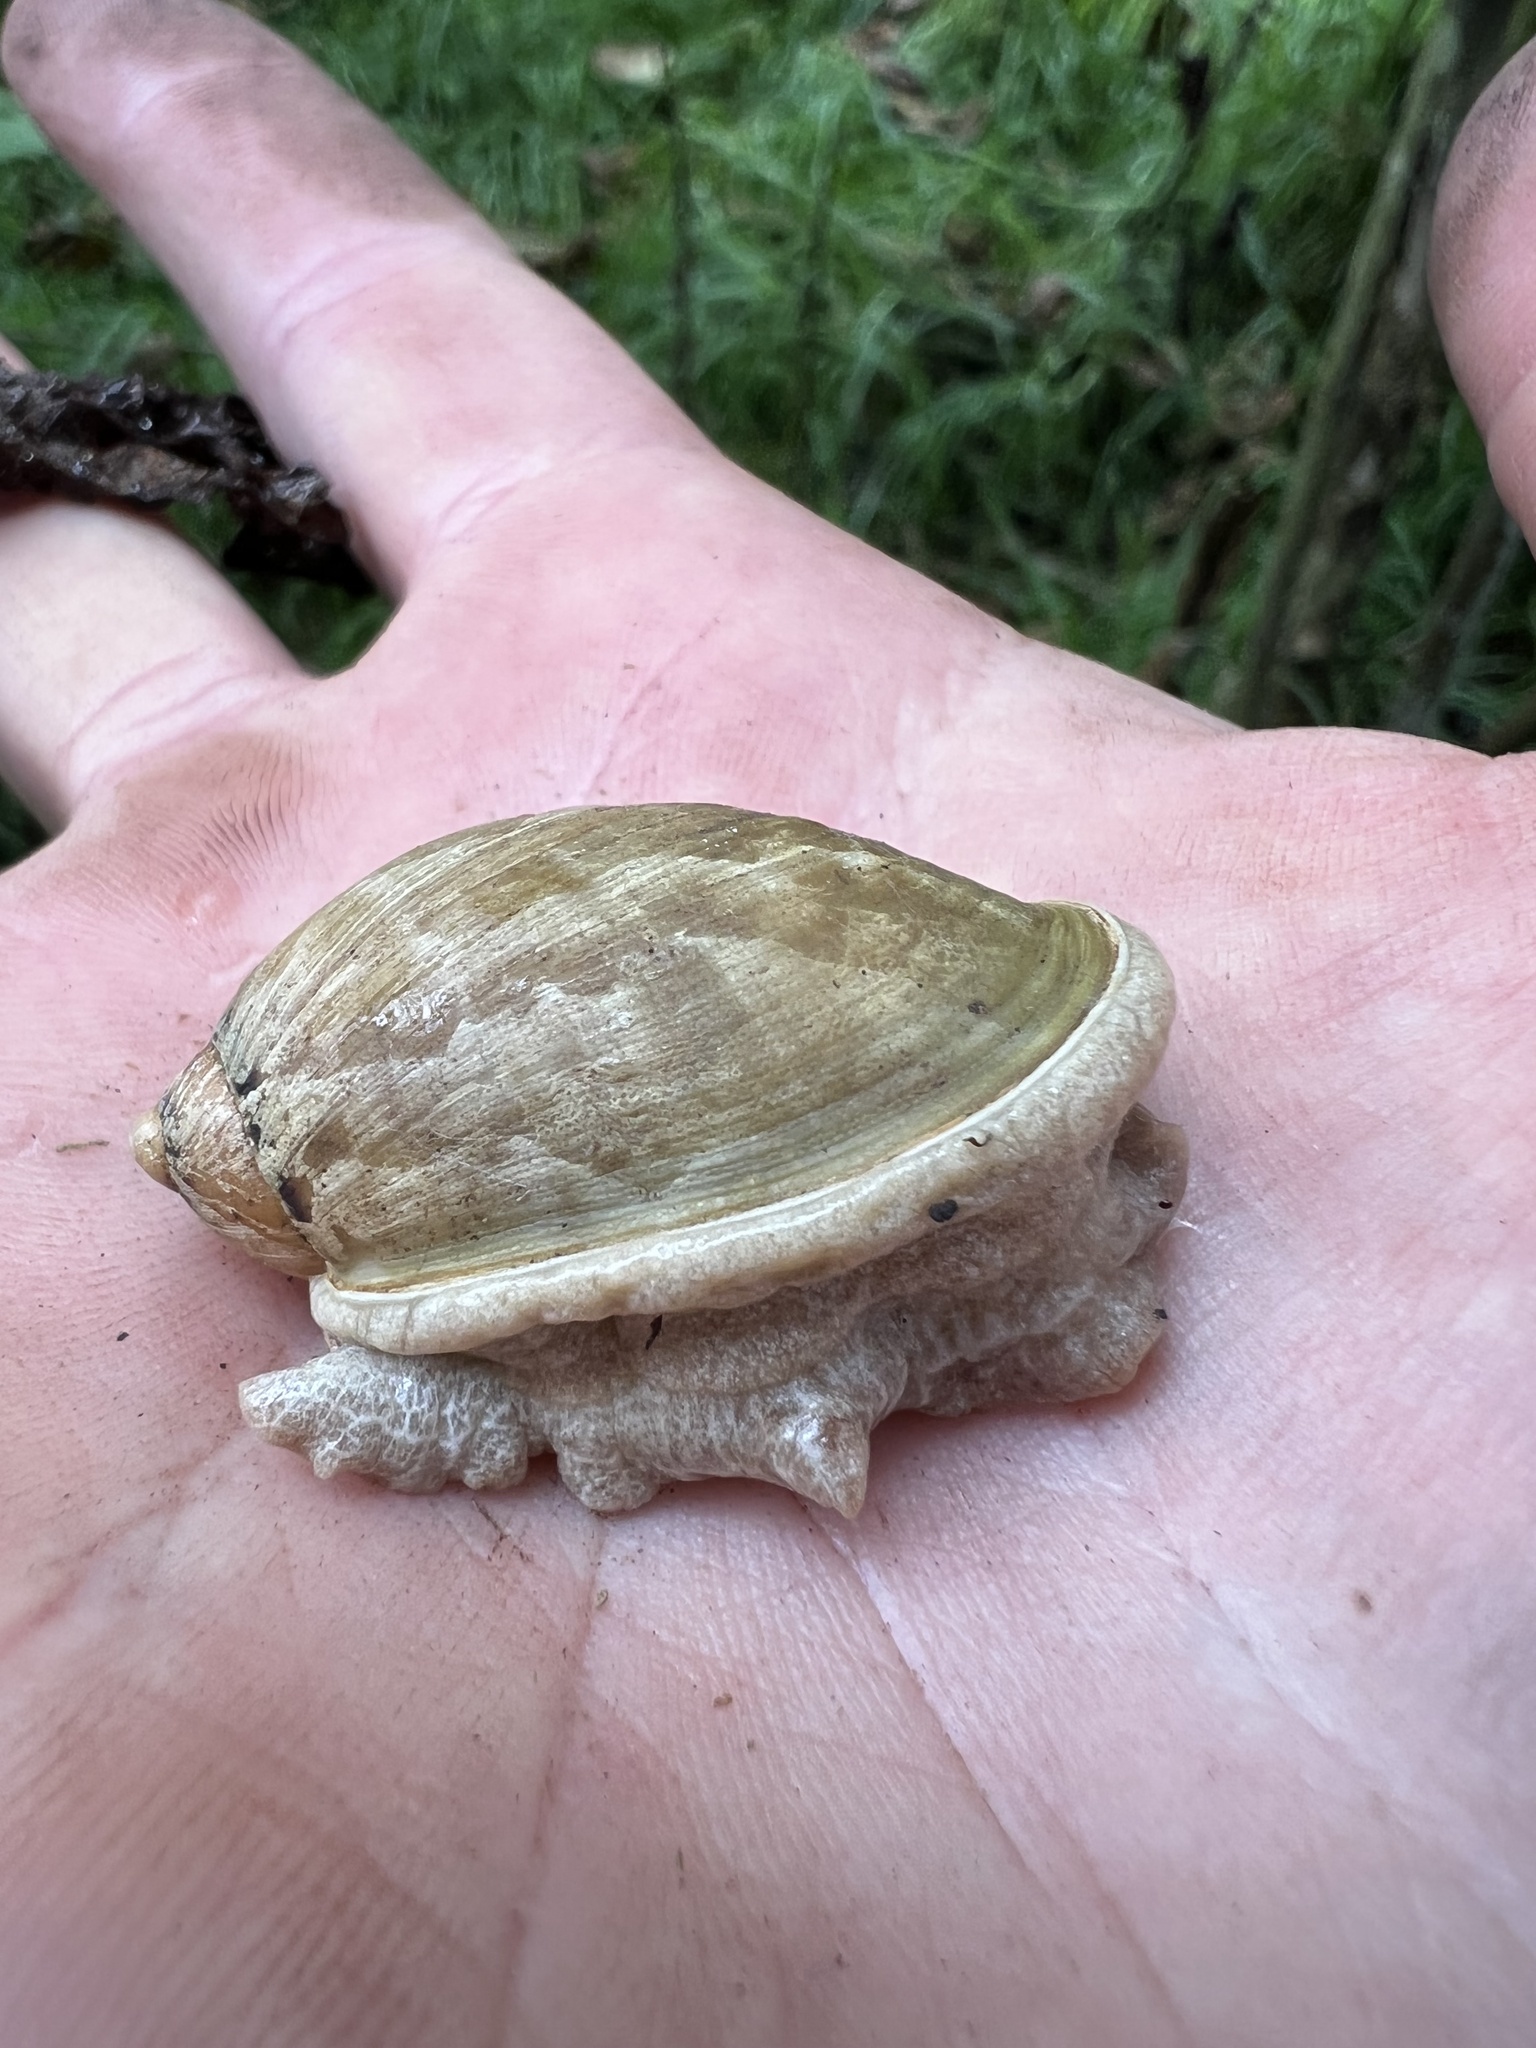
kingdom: Animalia
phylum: Mollusca
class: Gastropoda
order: Stylommatophora
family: Amphibulimidae
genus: Plekocheilus
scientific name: Plekocheilus delicatus
